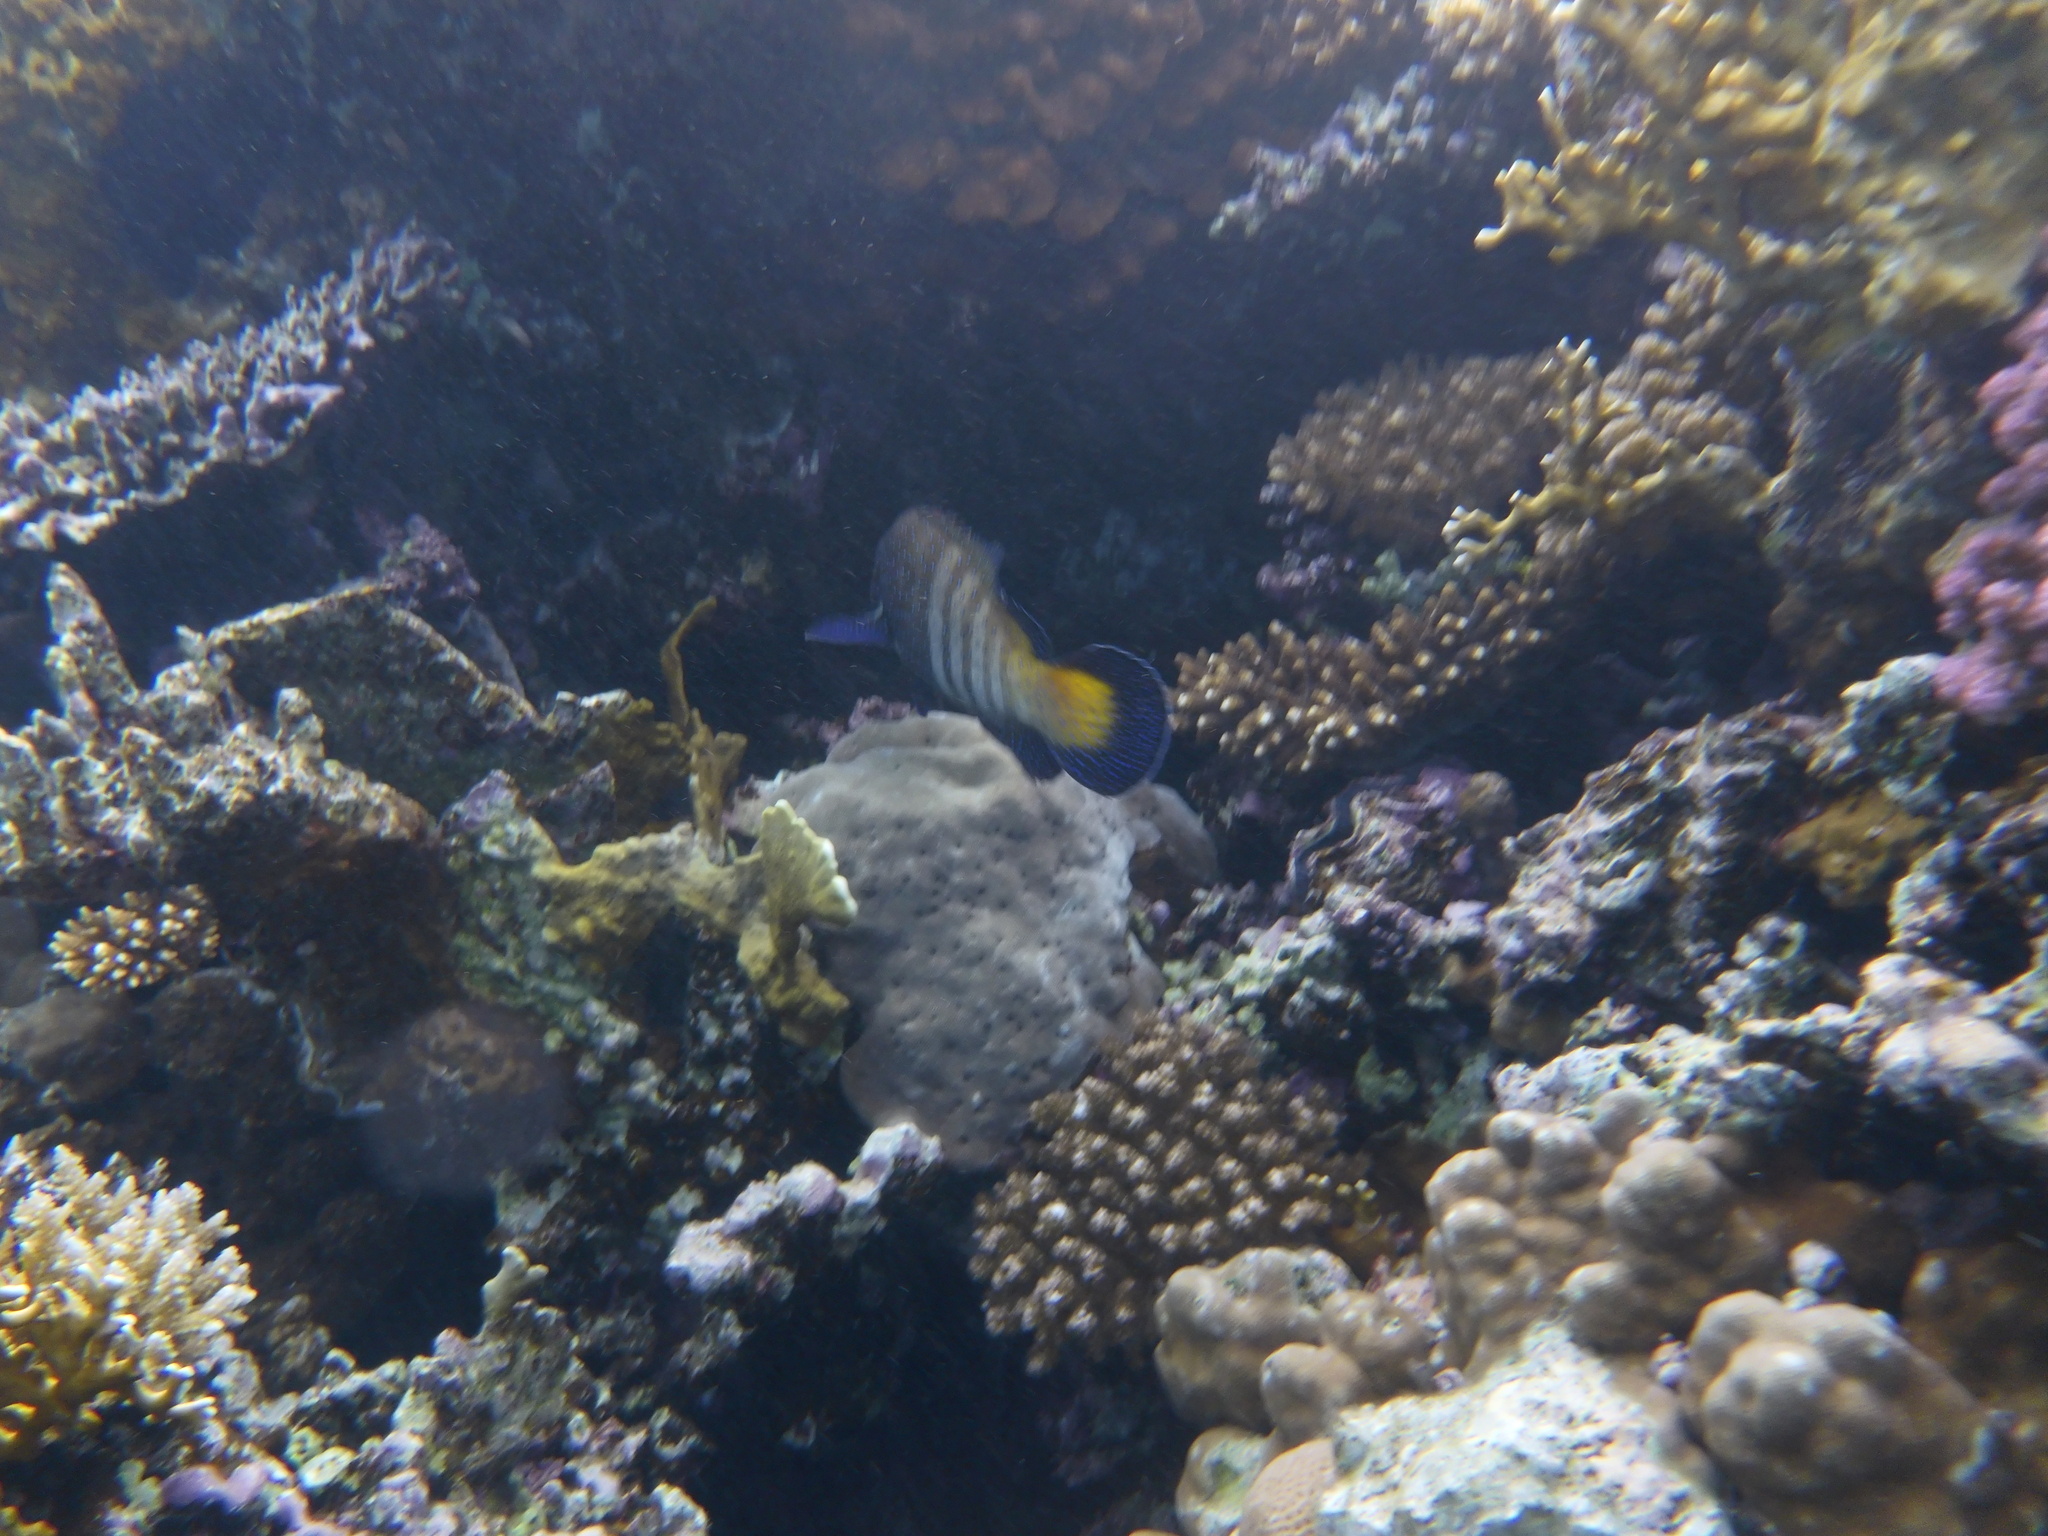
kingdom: Animalia
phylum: Chordata
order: Perciformes
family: Serranidae
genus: Cephalopholis
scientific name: Cephalopholis argus
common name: Peacock grouper
